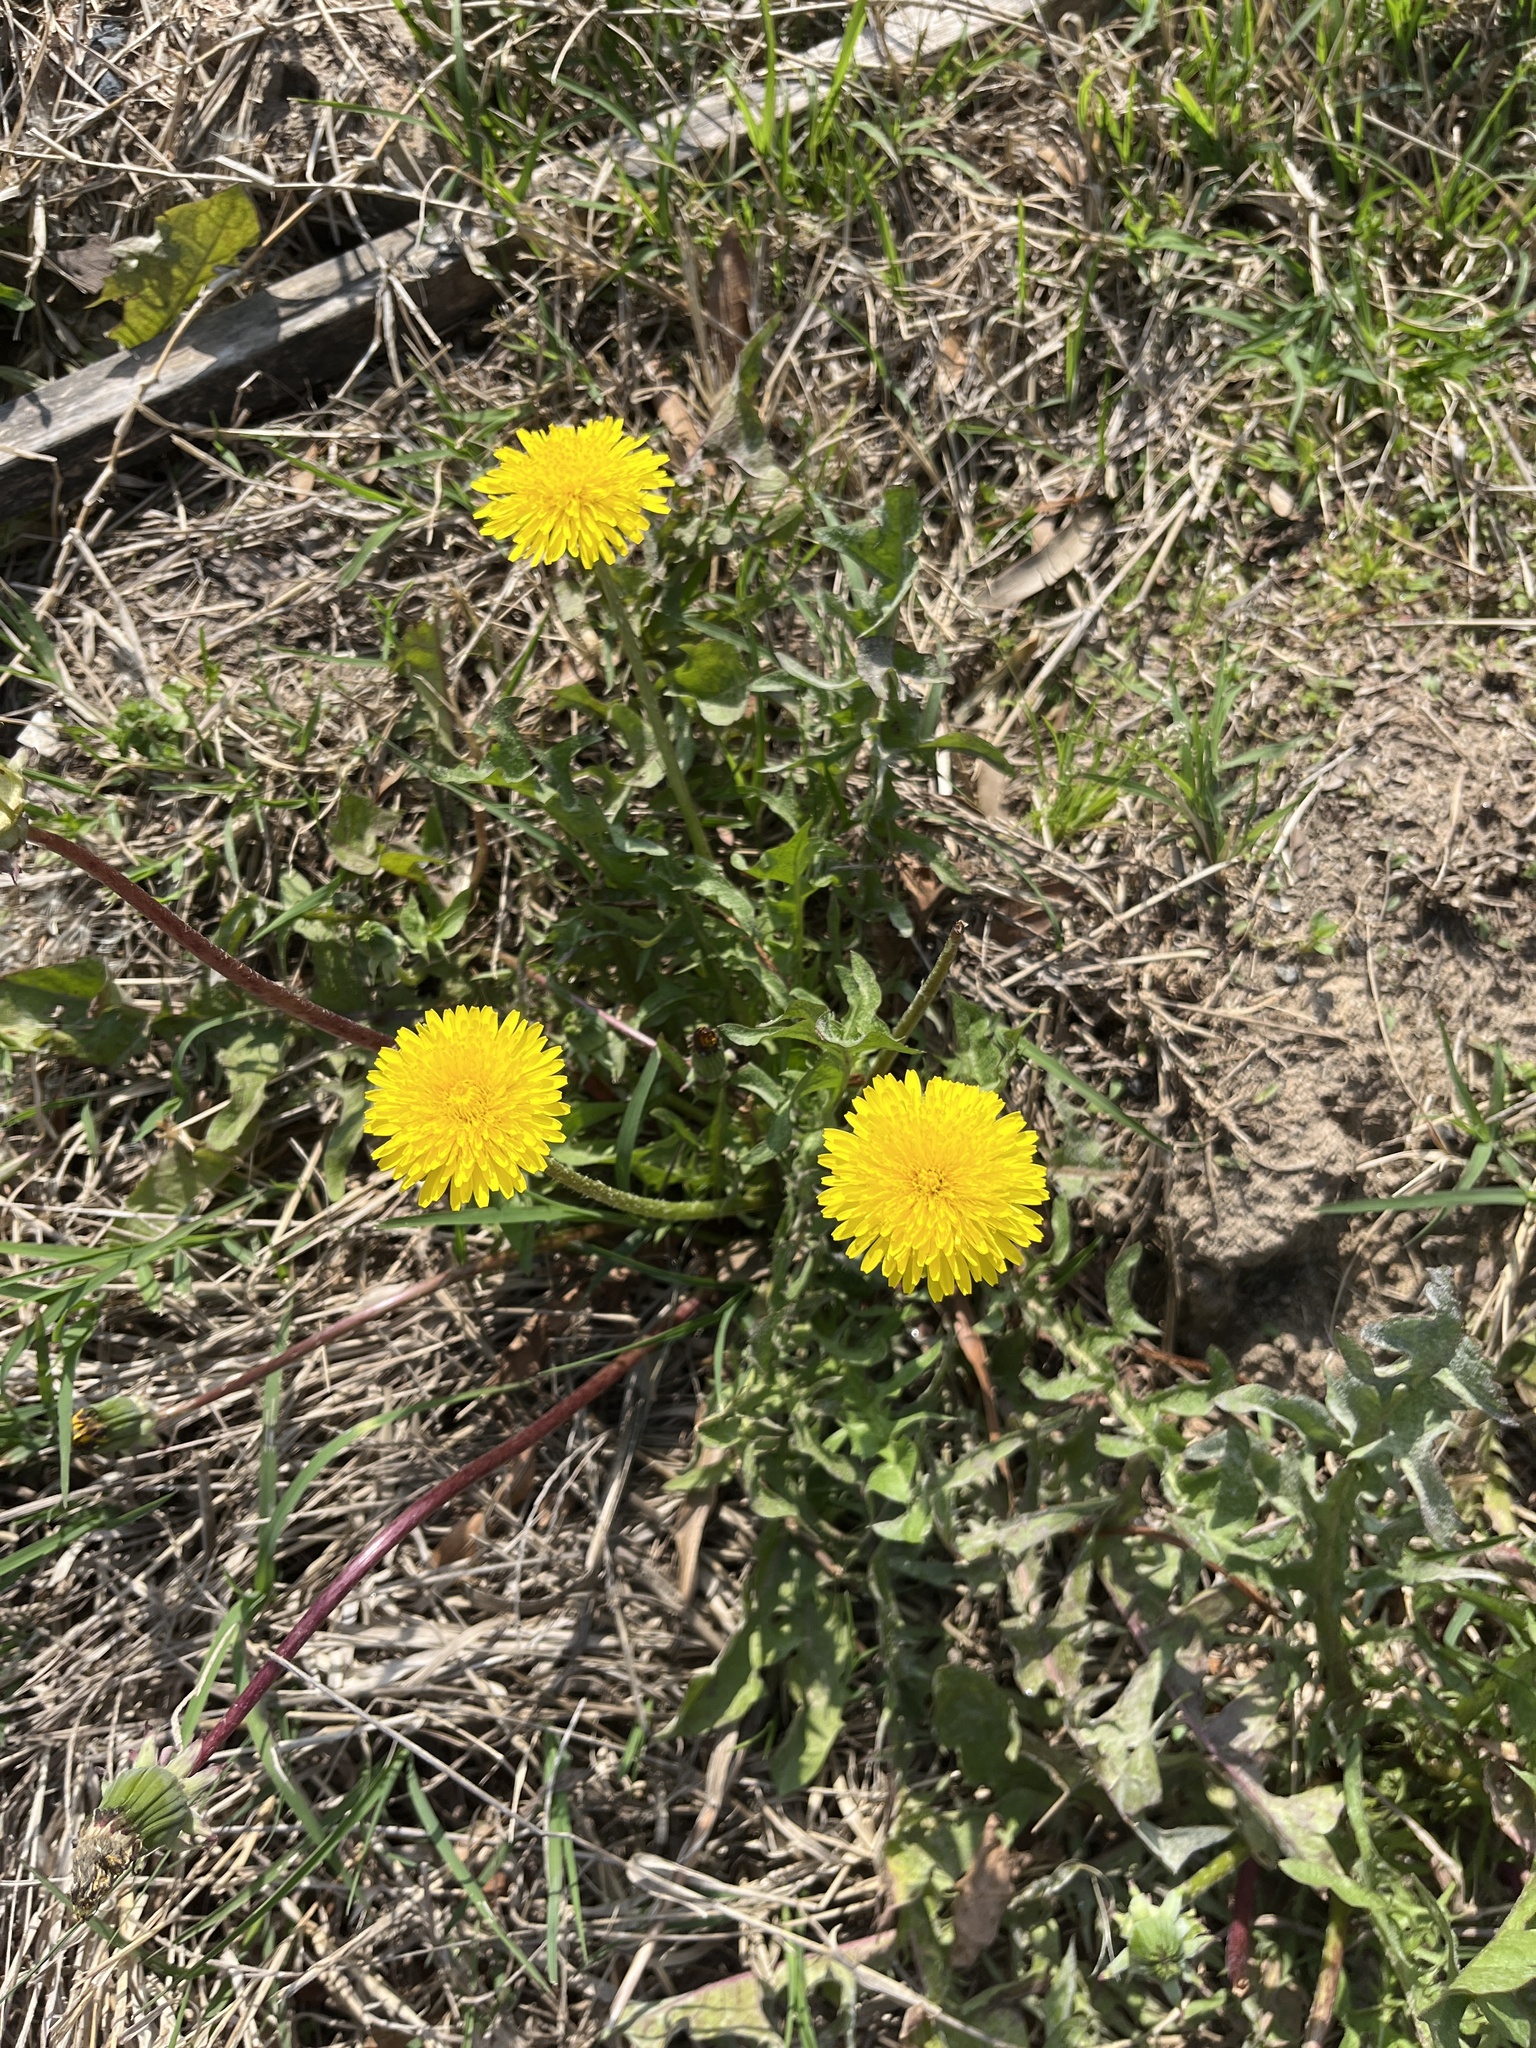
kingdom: Plantae
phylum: Tracheophyta
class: Magnoliopsida
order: Asterales
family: Asteraceae
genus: Taraxacum
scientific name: Taraxacum
